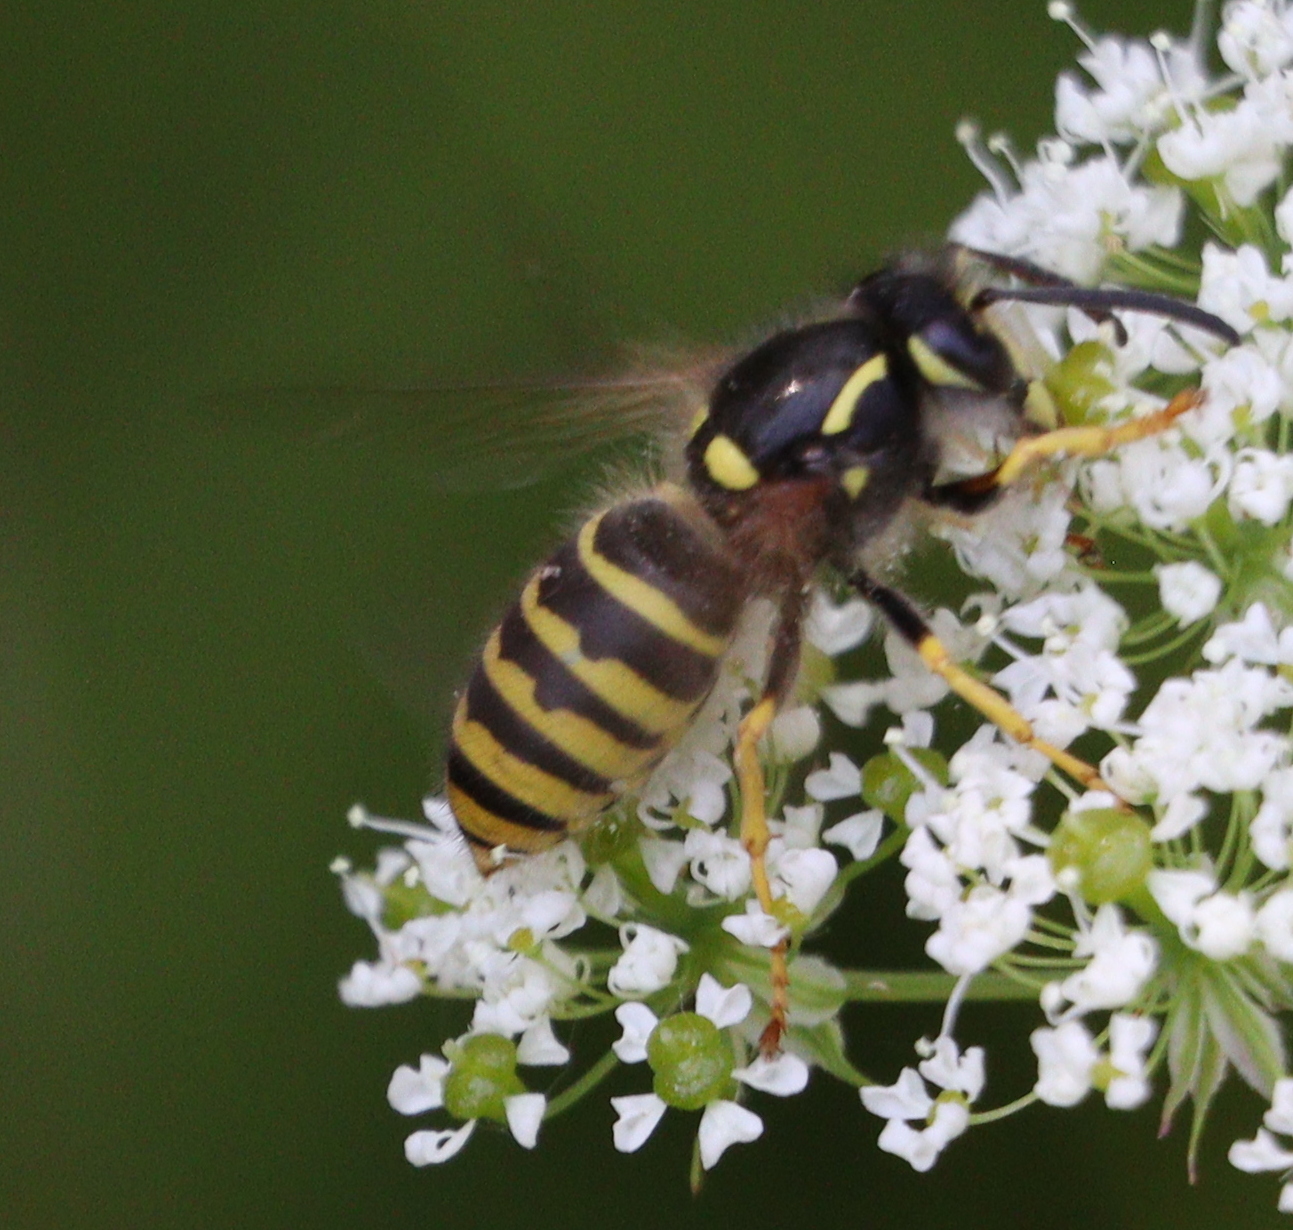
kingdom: Animalia
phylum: Arthropoda
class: Insecta
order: Hymenoptera
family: Vespidae
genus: Dolichovespula
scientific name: Dolichovespula sylvestris
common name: Tree wasp
